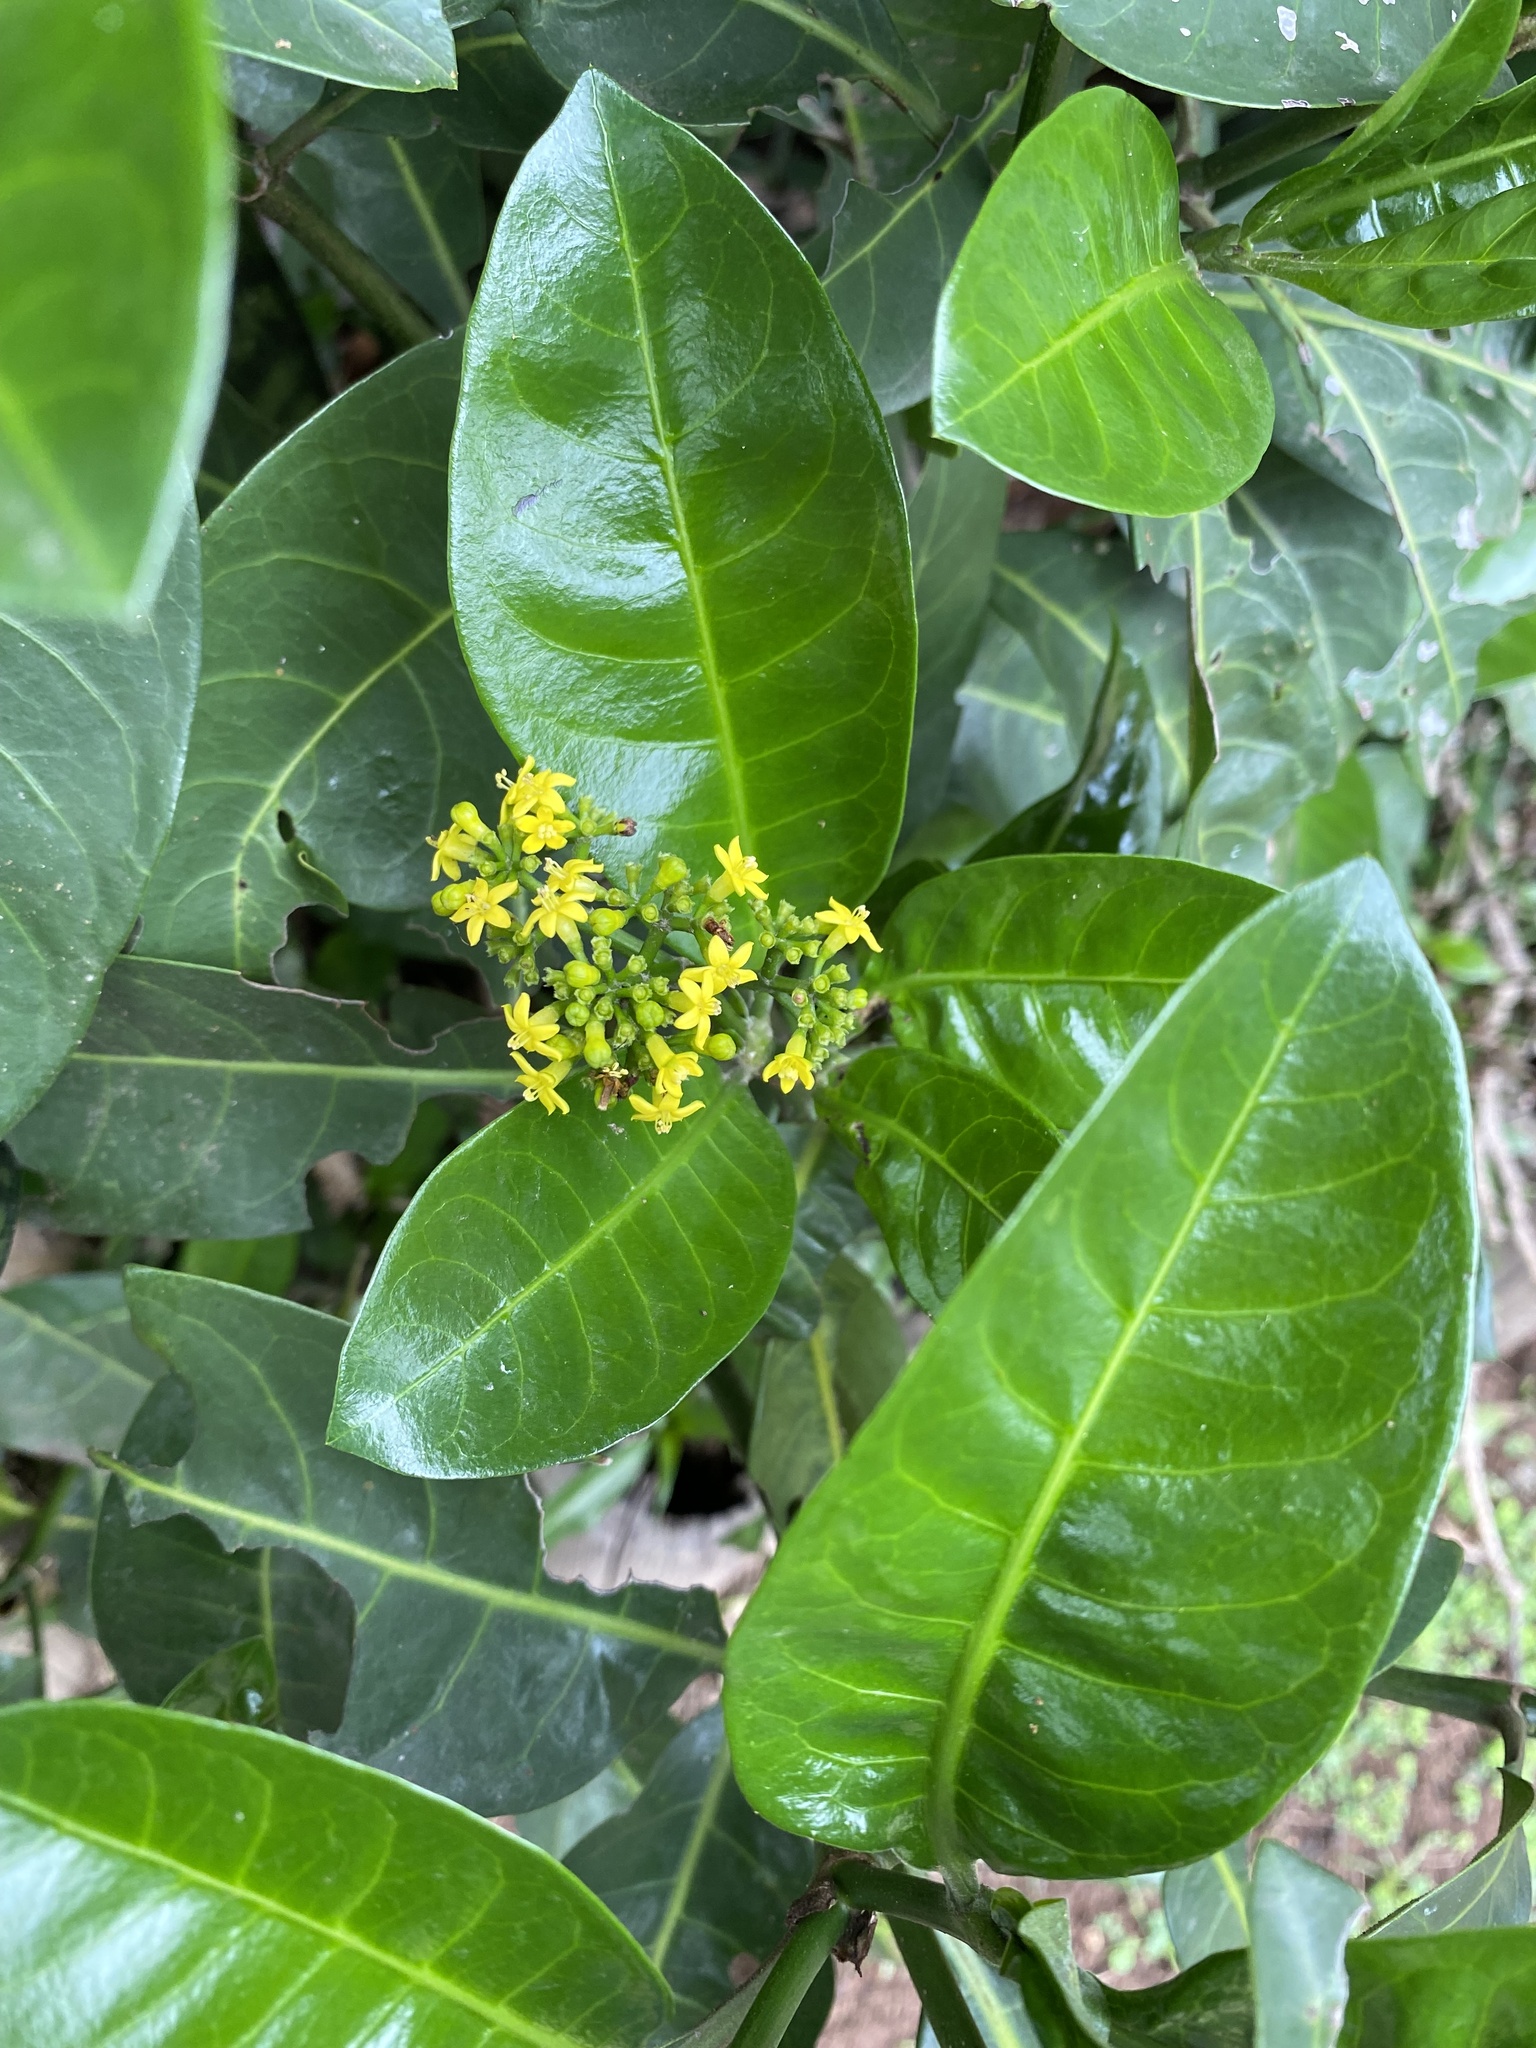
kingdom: Plantae
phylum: Tracheophyta
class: Magnoliopsida
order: Gentianales
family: Rubiaceae
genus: Psychotria
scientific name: Psychotria capensis
